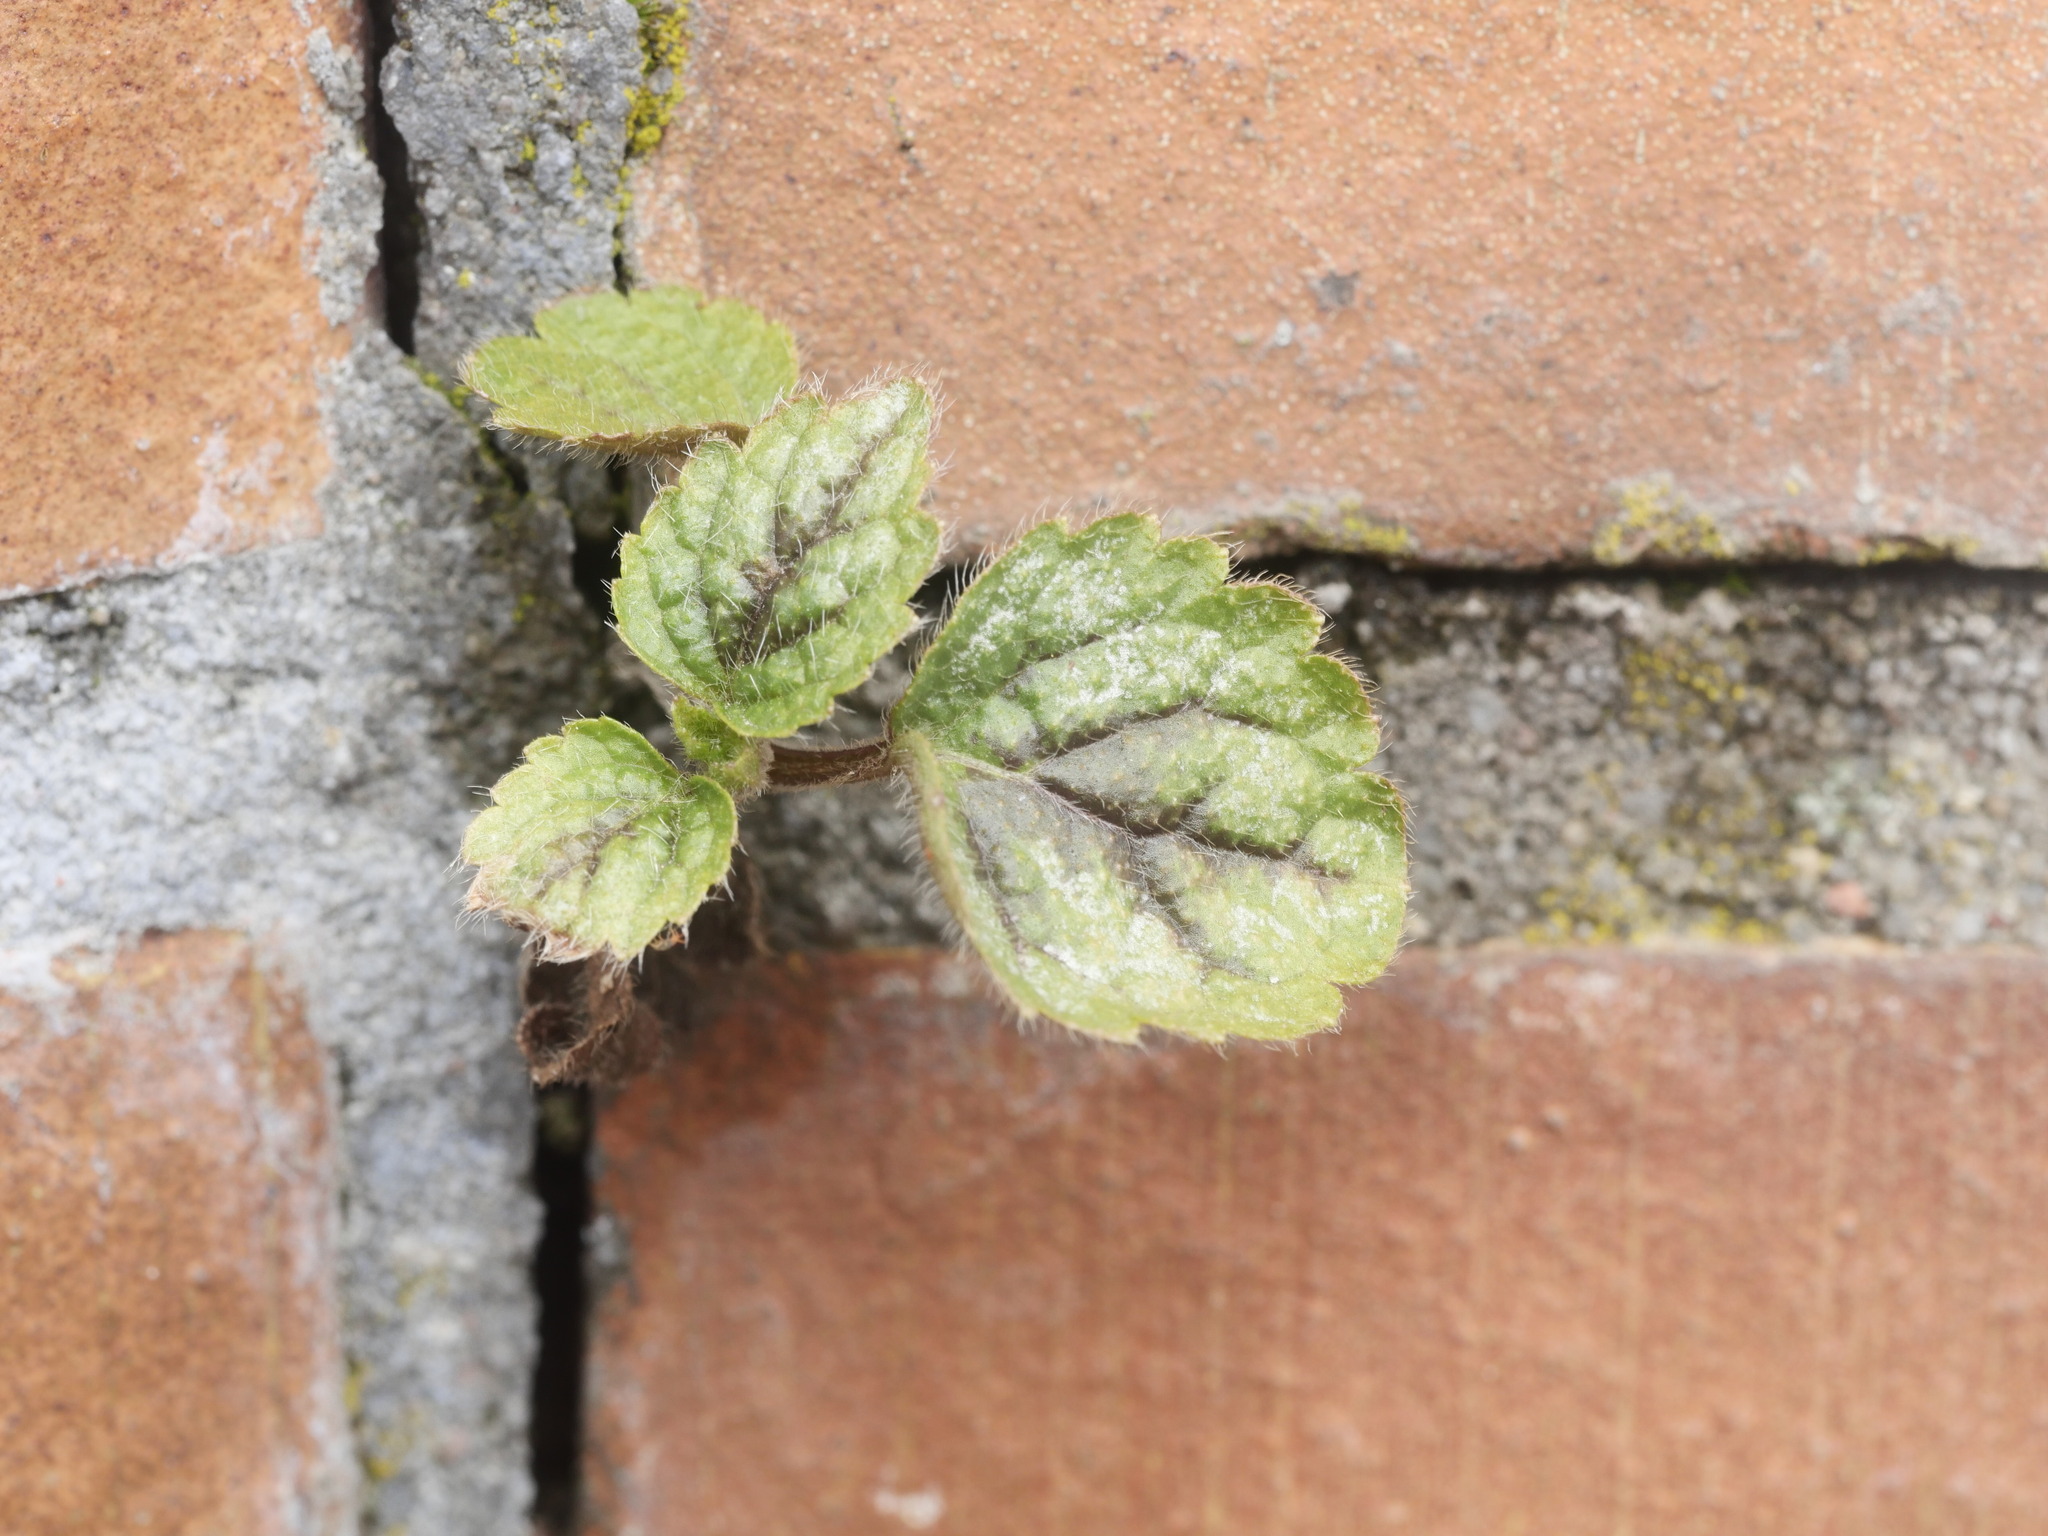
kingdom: Plantae
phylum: Tracheophyta
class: Magnoliopsida
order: Lamiales
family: Lamiaceae
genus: Lamium
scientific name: Lamium galeobdolon
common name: Yellow archangel
